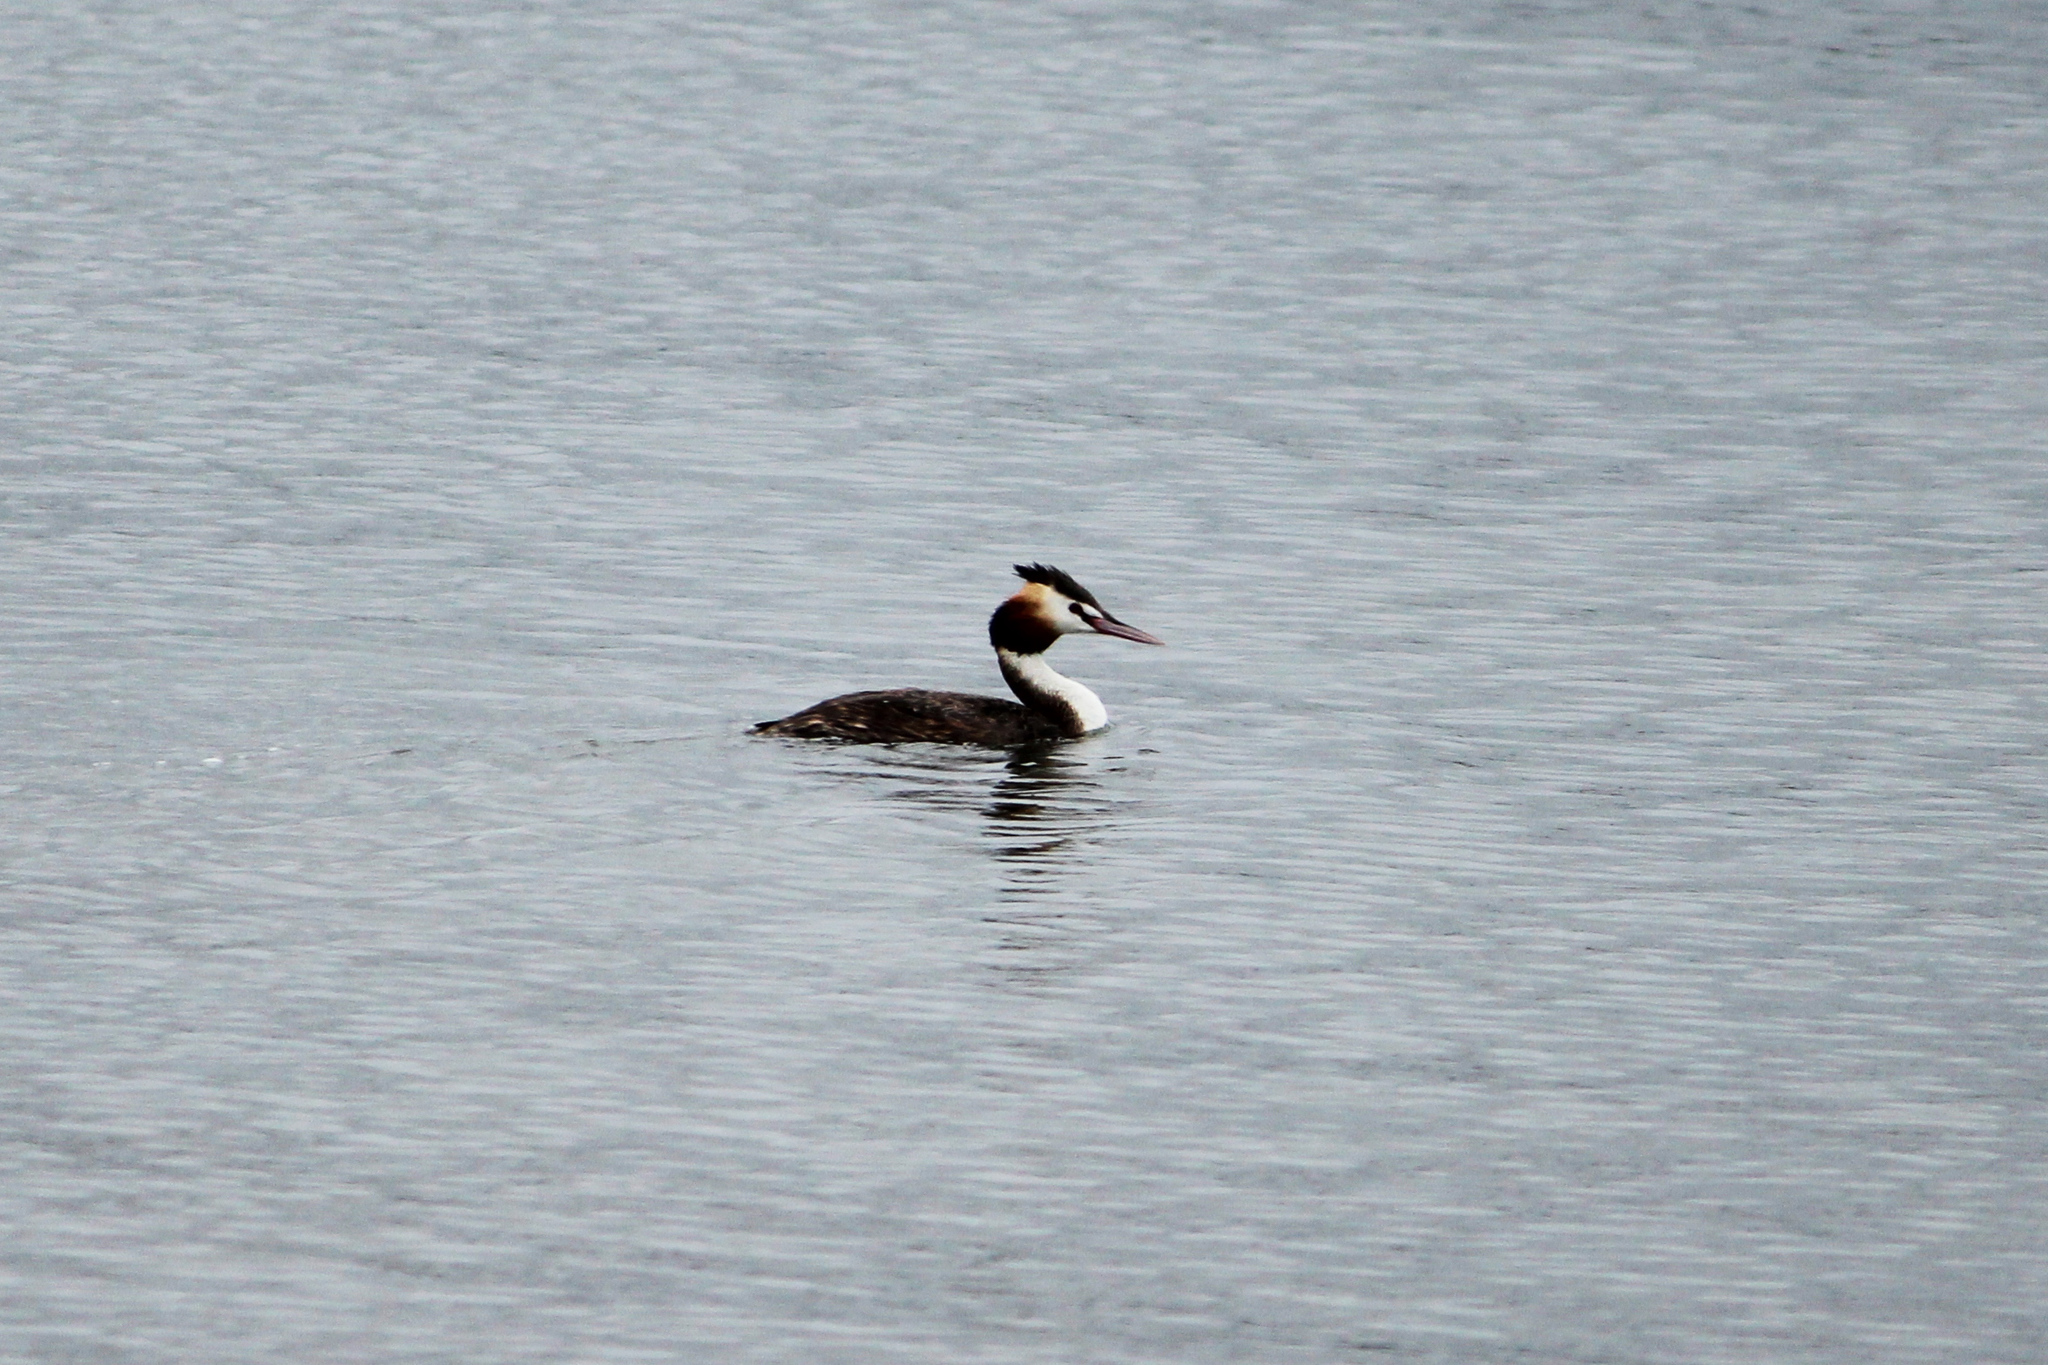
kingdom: Animalia
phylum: Chordata
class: Aves
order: Podicipediformes
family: Podicipedidae
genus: Podiceps
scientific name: Podiceps cristatus
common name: Great crested grebe
